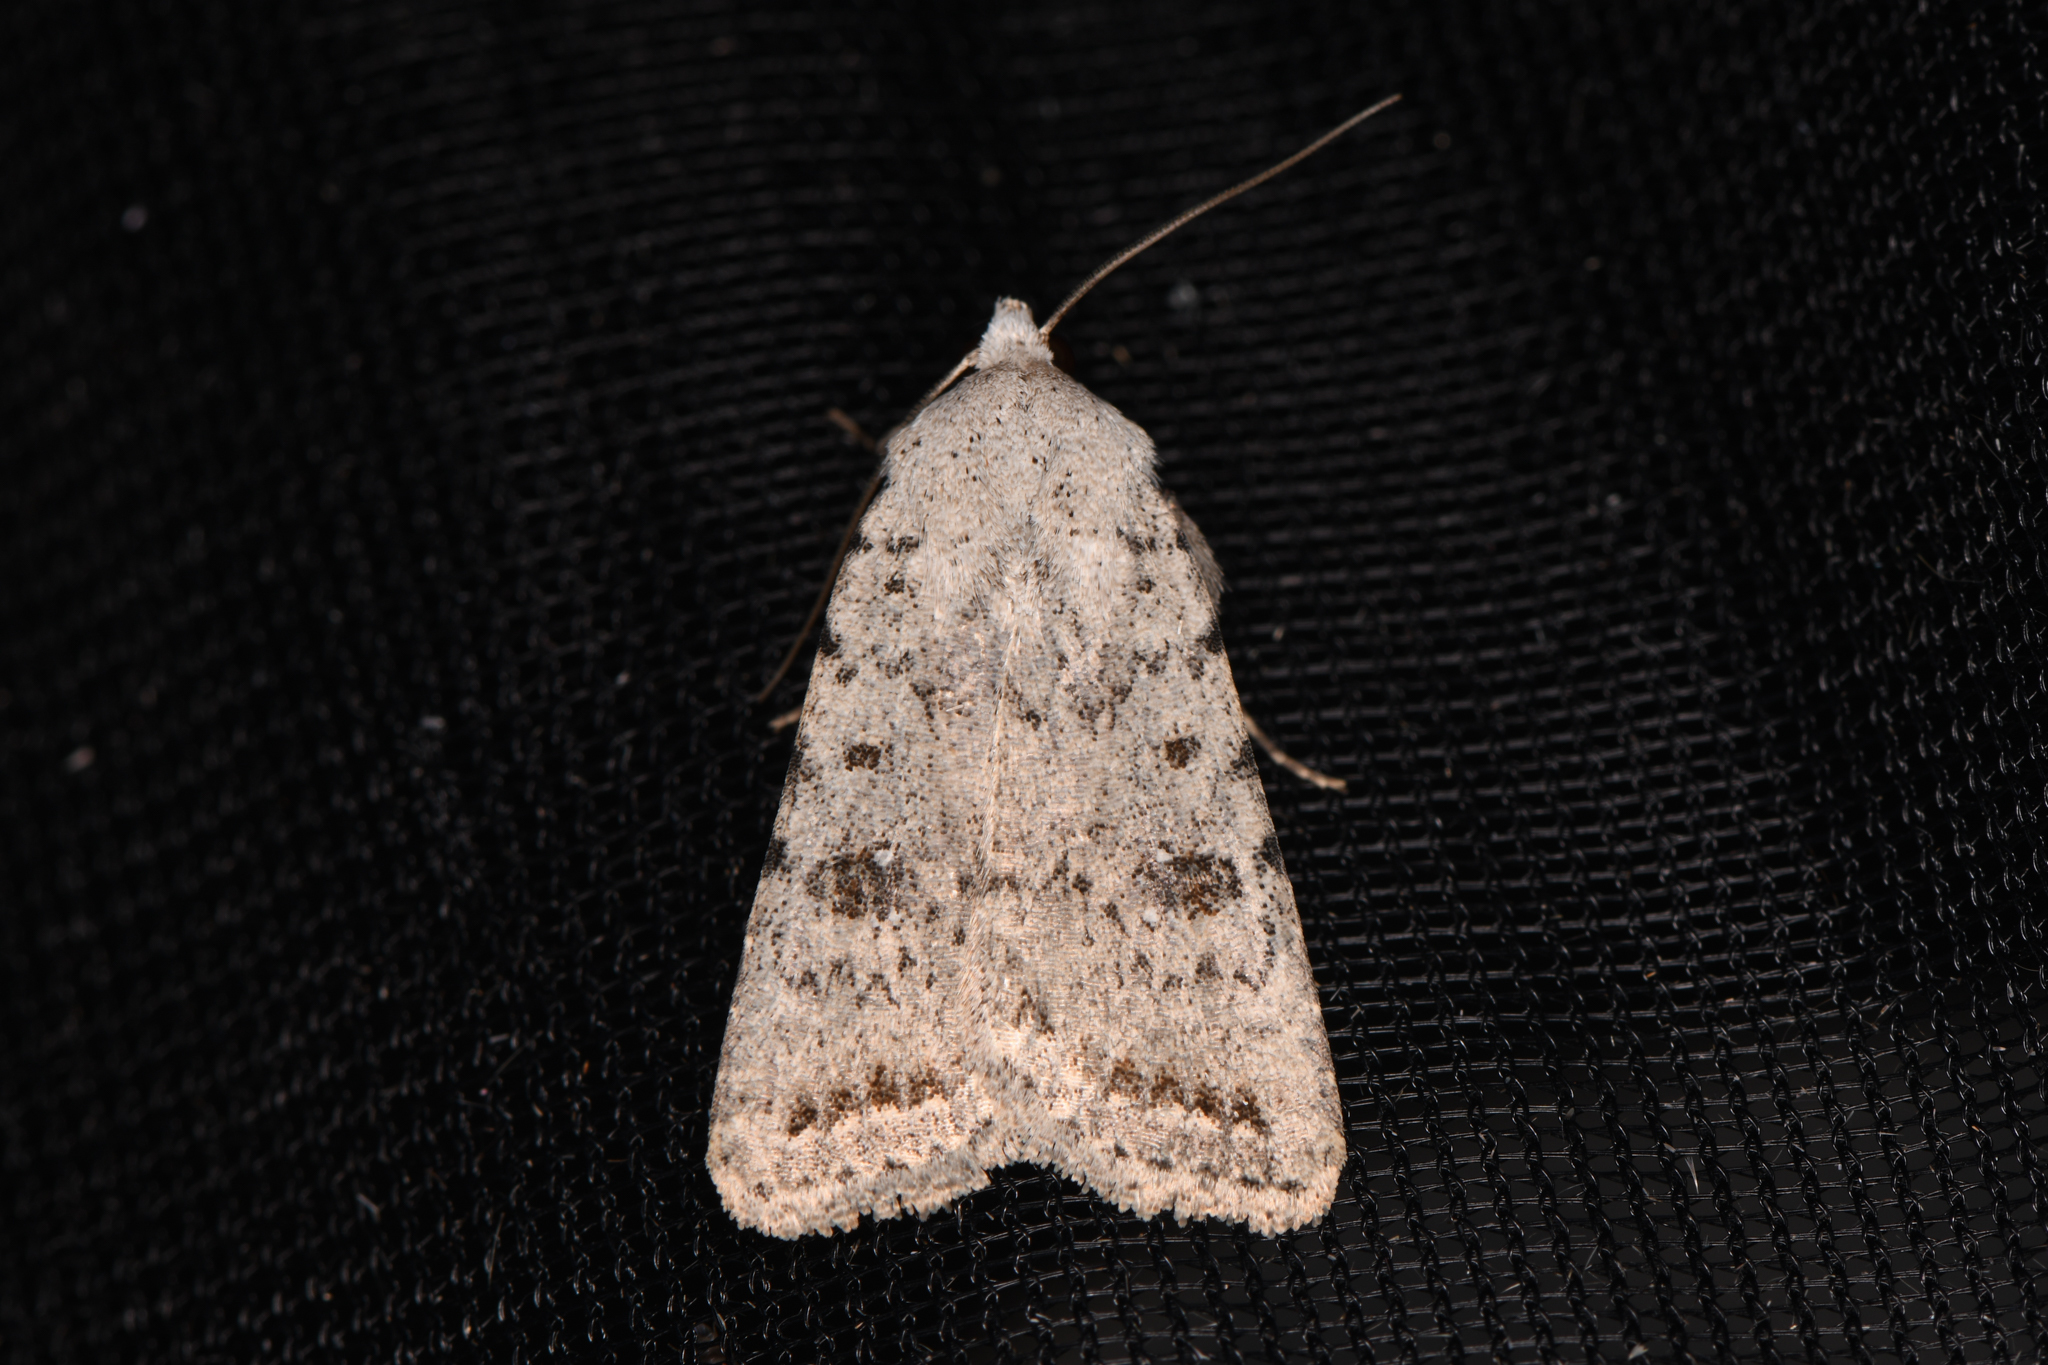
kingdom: Animalia
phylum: Arthropoda
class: Insecta
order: Lepidoptera
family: Noctuidae
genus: Caradrina
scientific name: Caradrina montana
